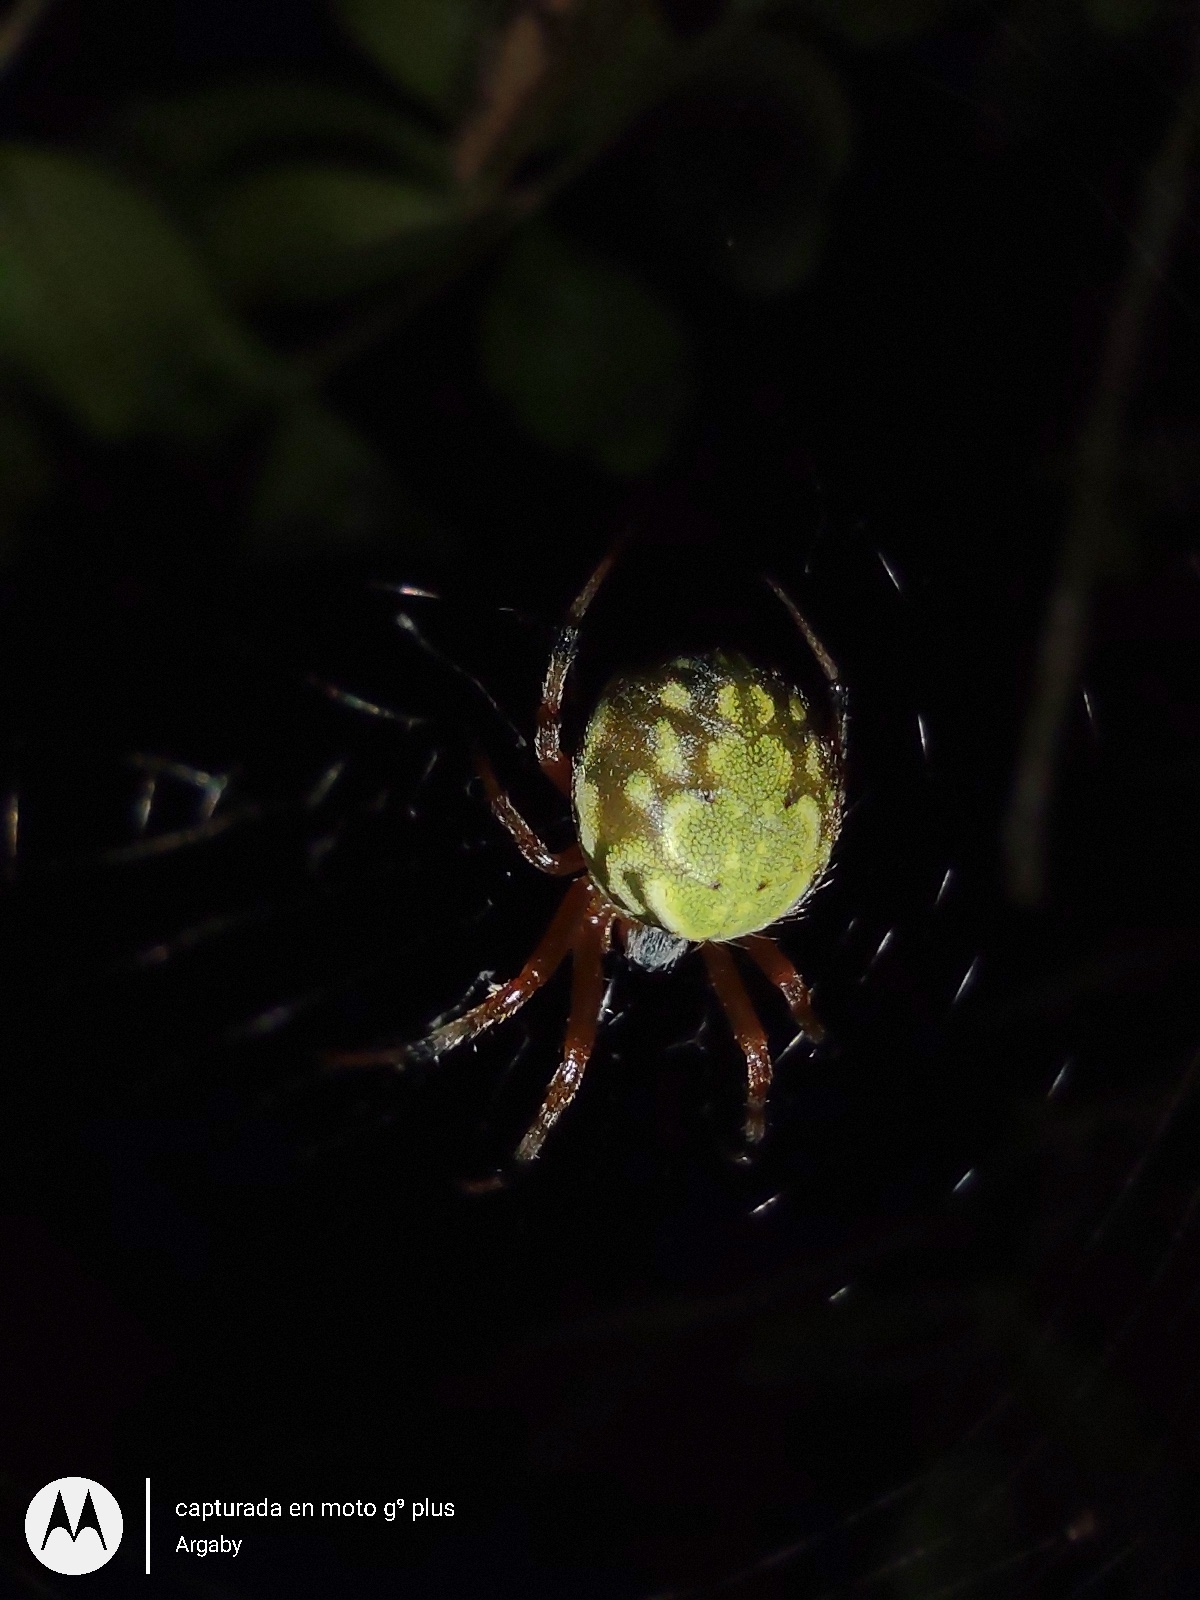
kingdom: Animalia
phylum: Arthropoda
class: Arachnida
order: Araneae
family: Araneidae
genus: Araneus
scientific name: Araneus workmani
